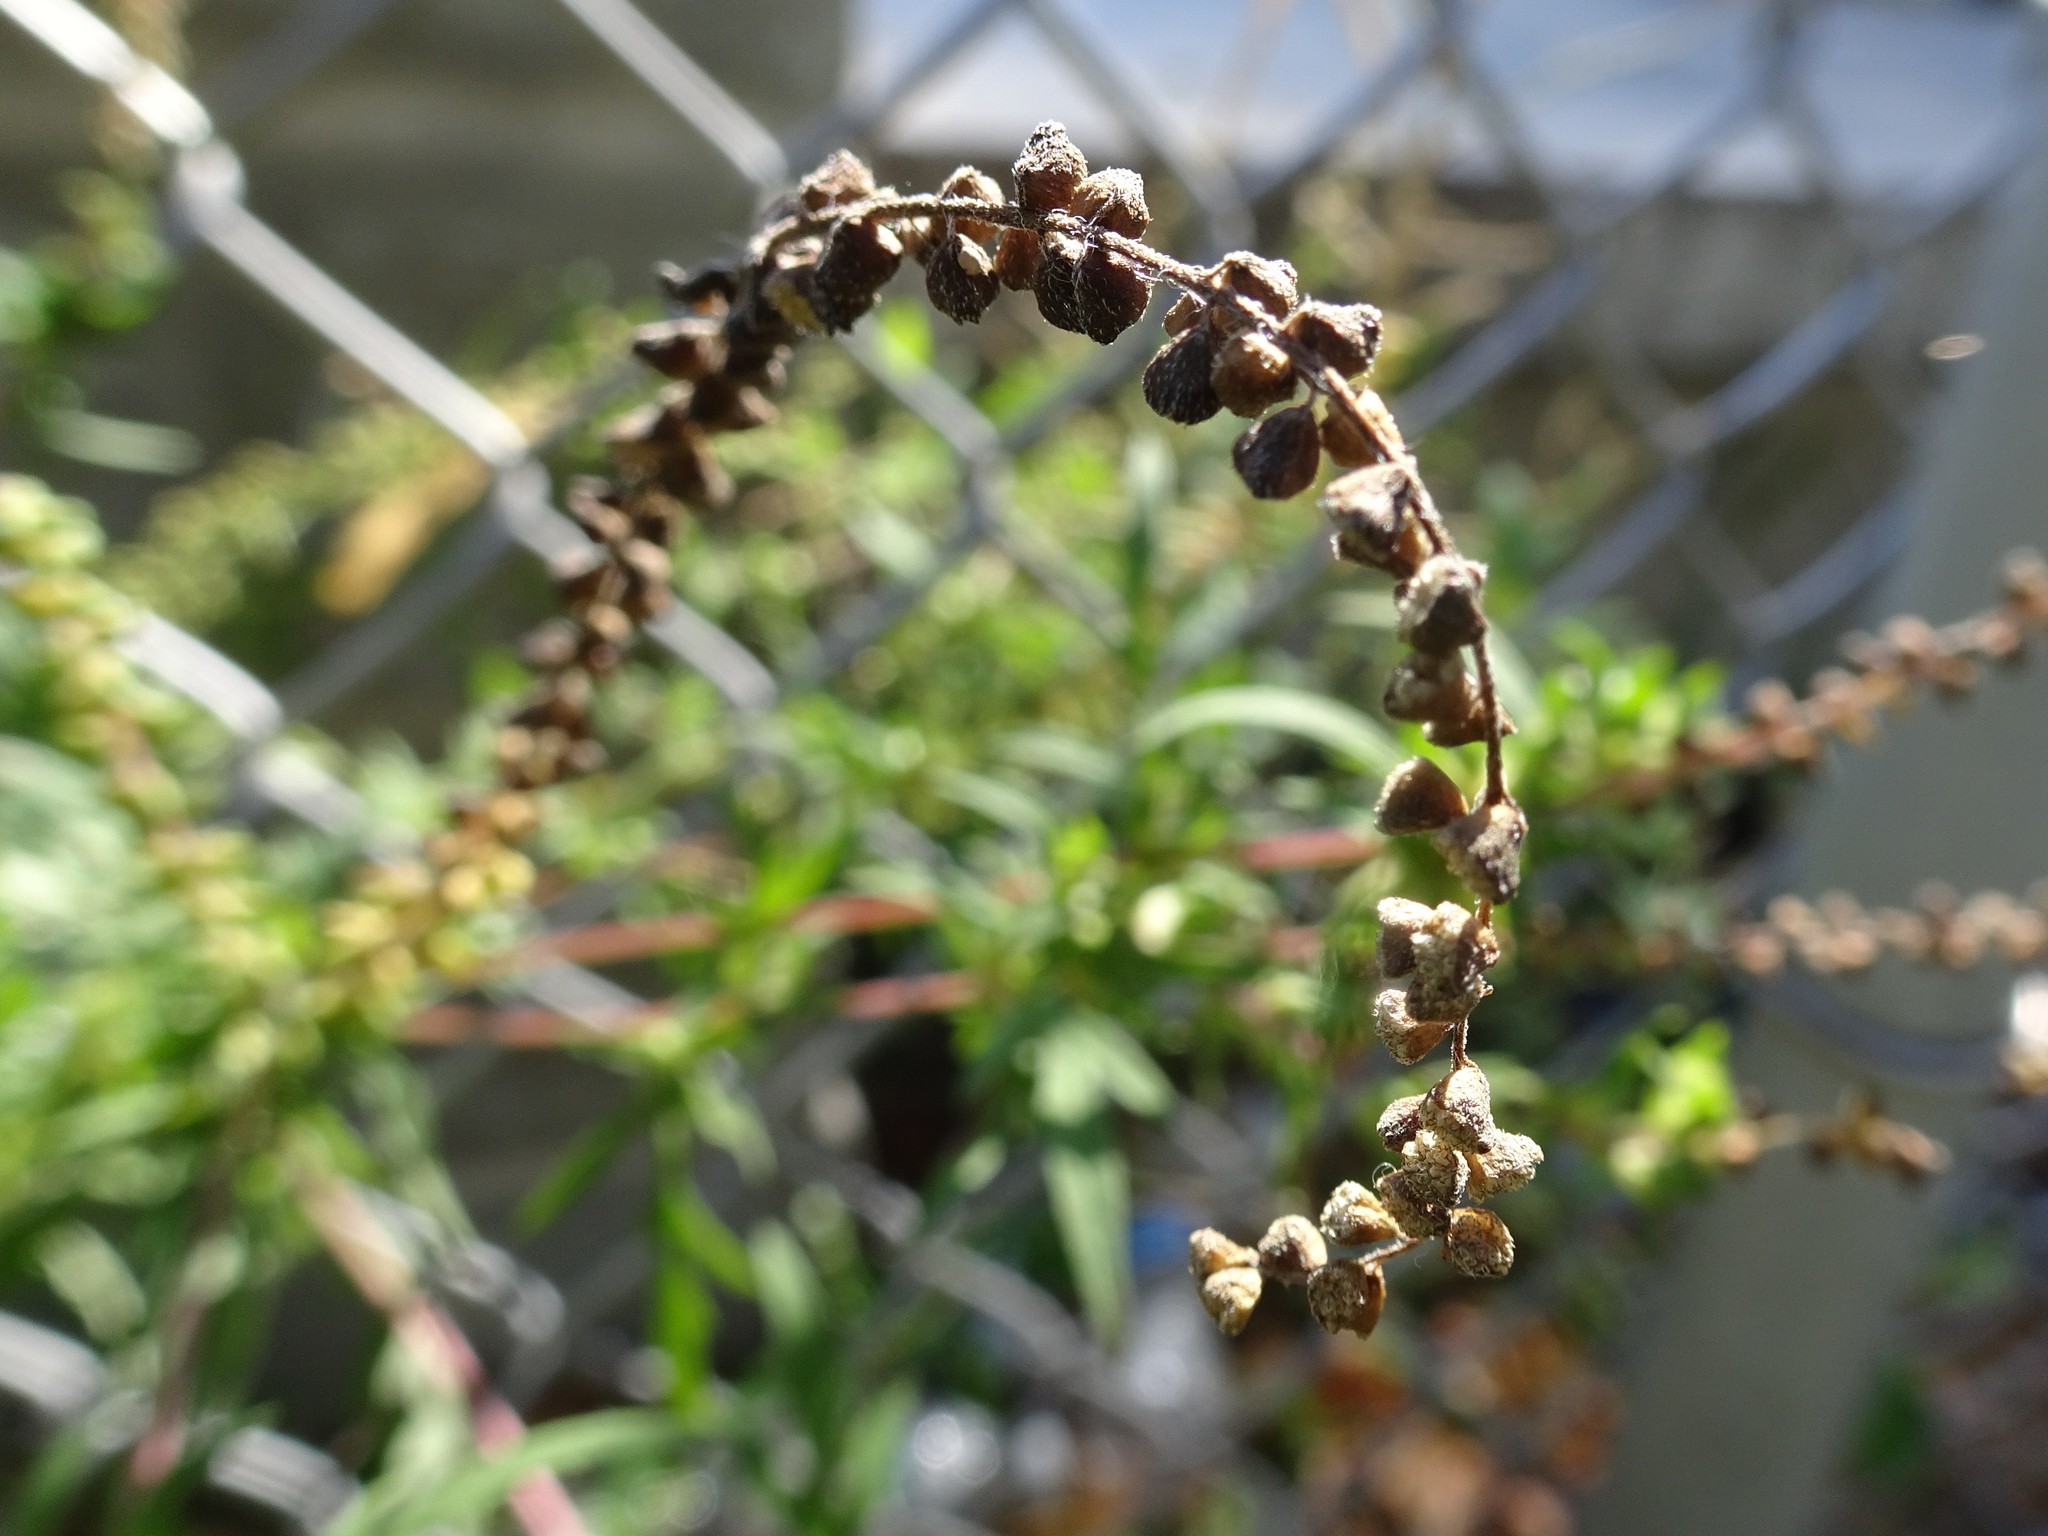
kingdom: Plantae
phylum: Tracheophyta
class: Magnoliopsida
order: Asterales
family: Asteraceae
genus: Artemisia
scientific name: Artemisia vulgaris
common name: Mugwort
